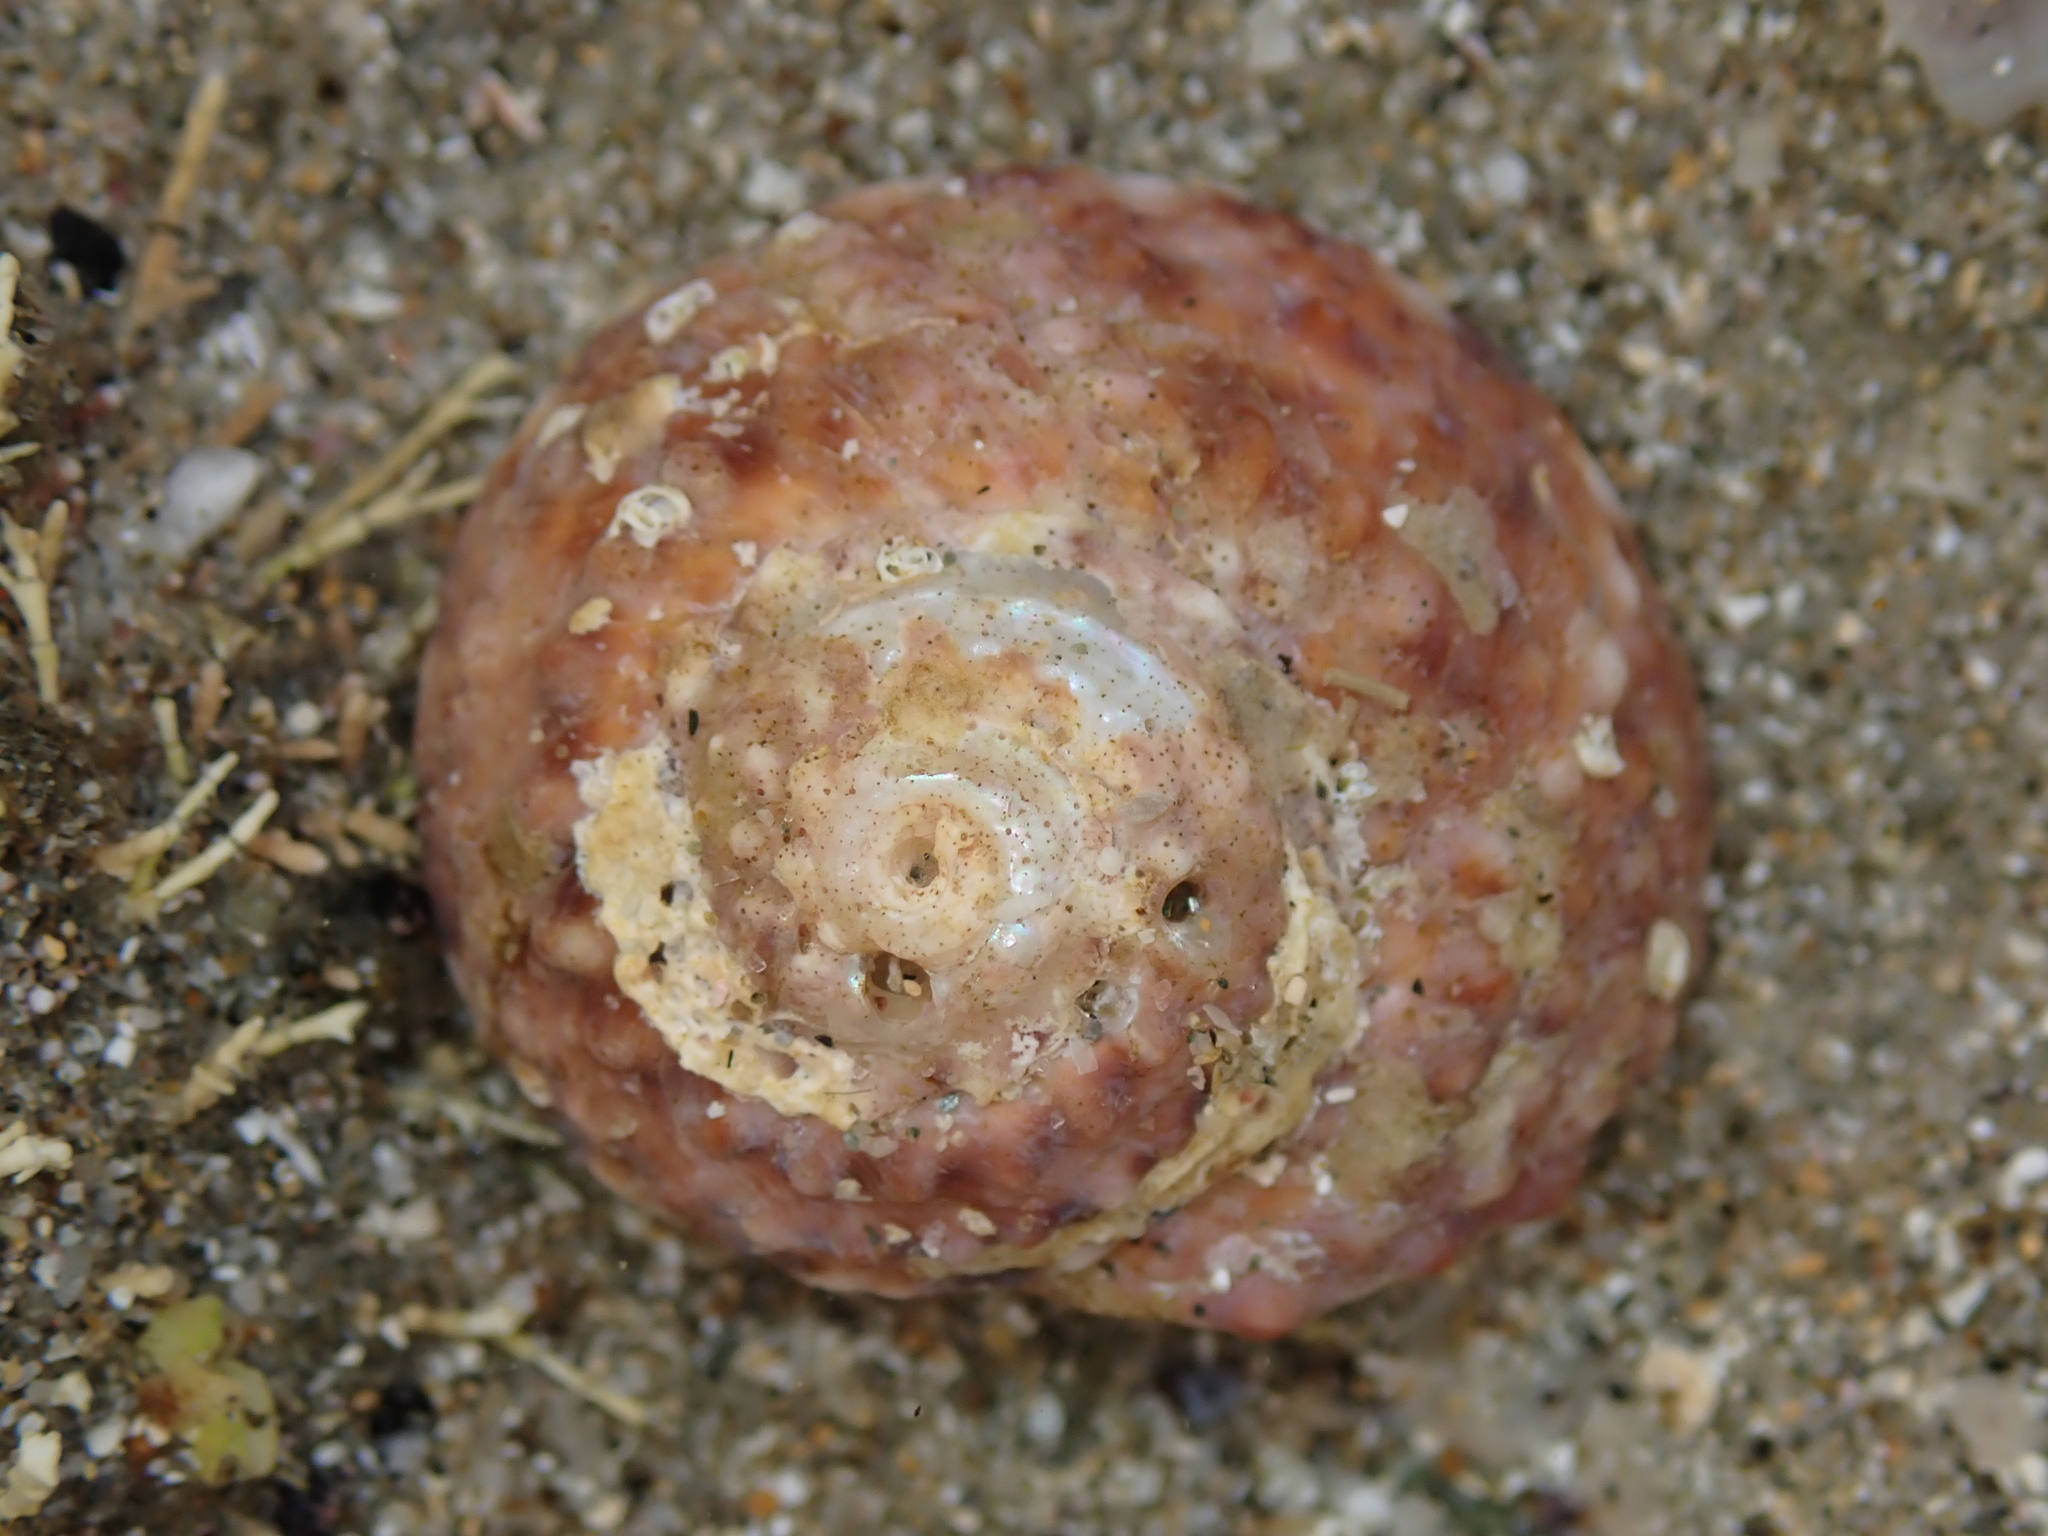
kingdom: Animalia
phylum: Mollusca
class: Gastropoda
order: Trochida
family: Turbinidae
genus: Modelia
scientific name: Modelia granosa
